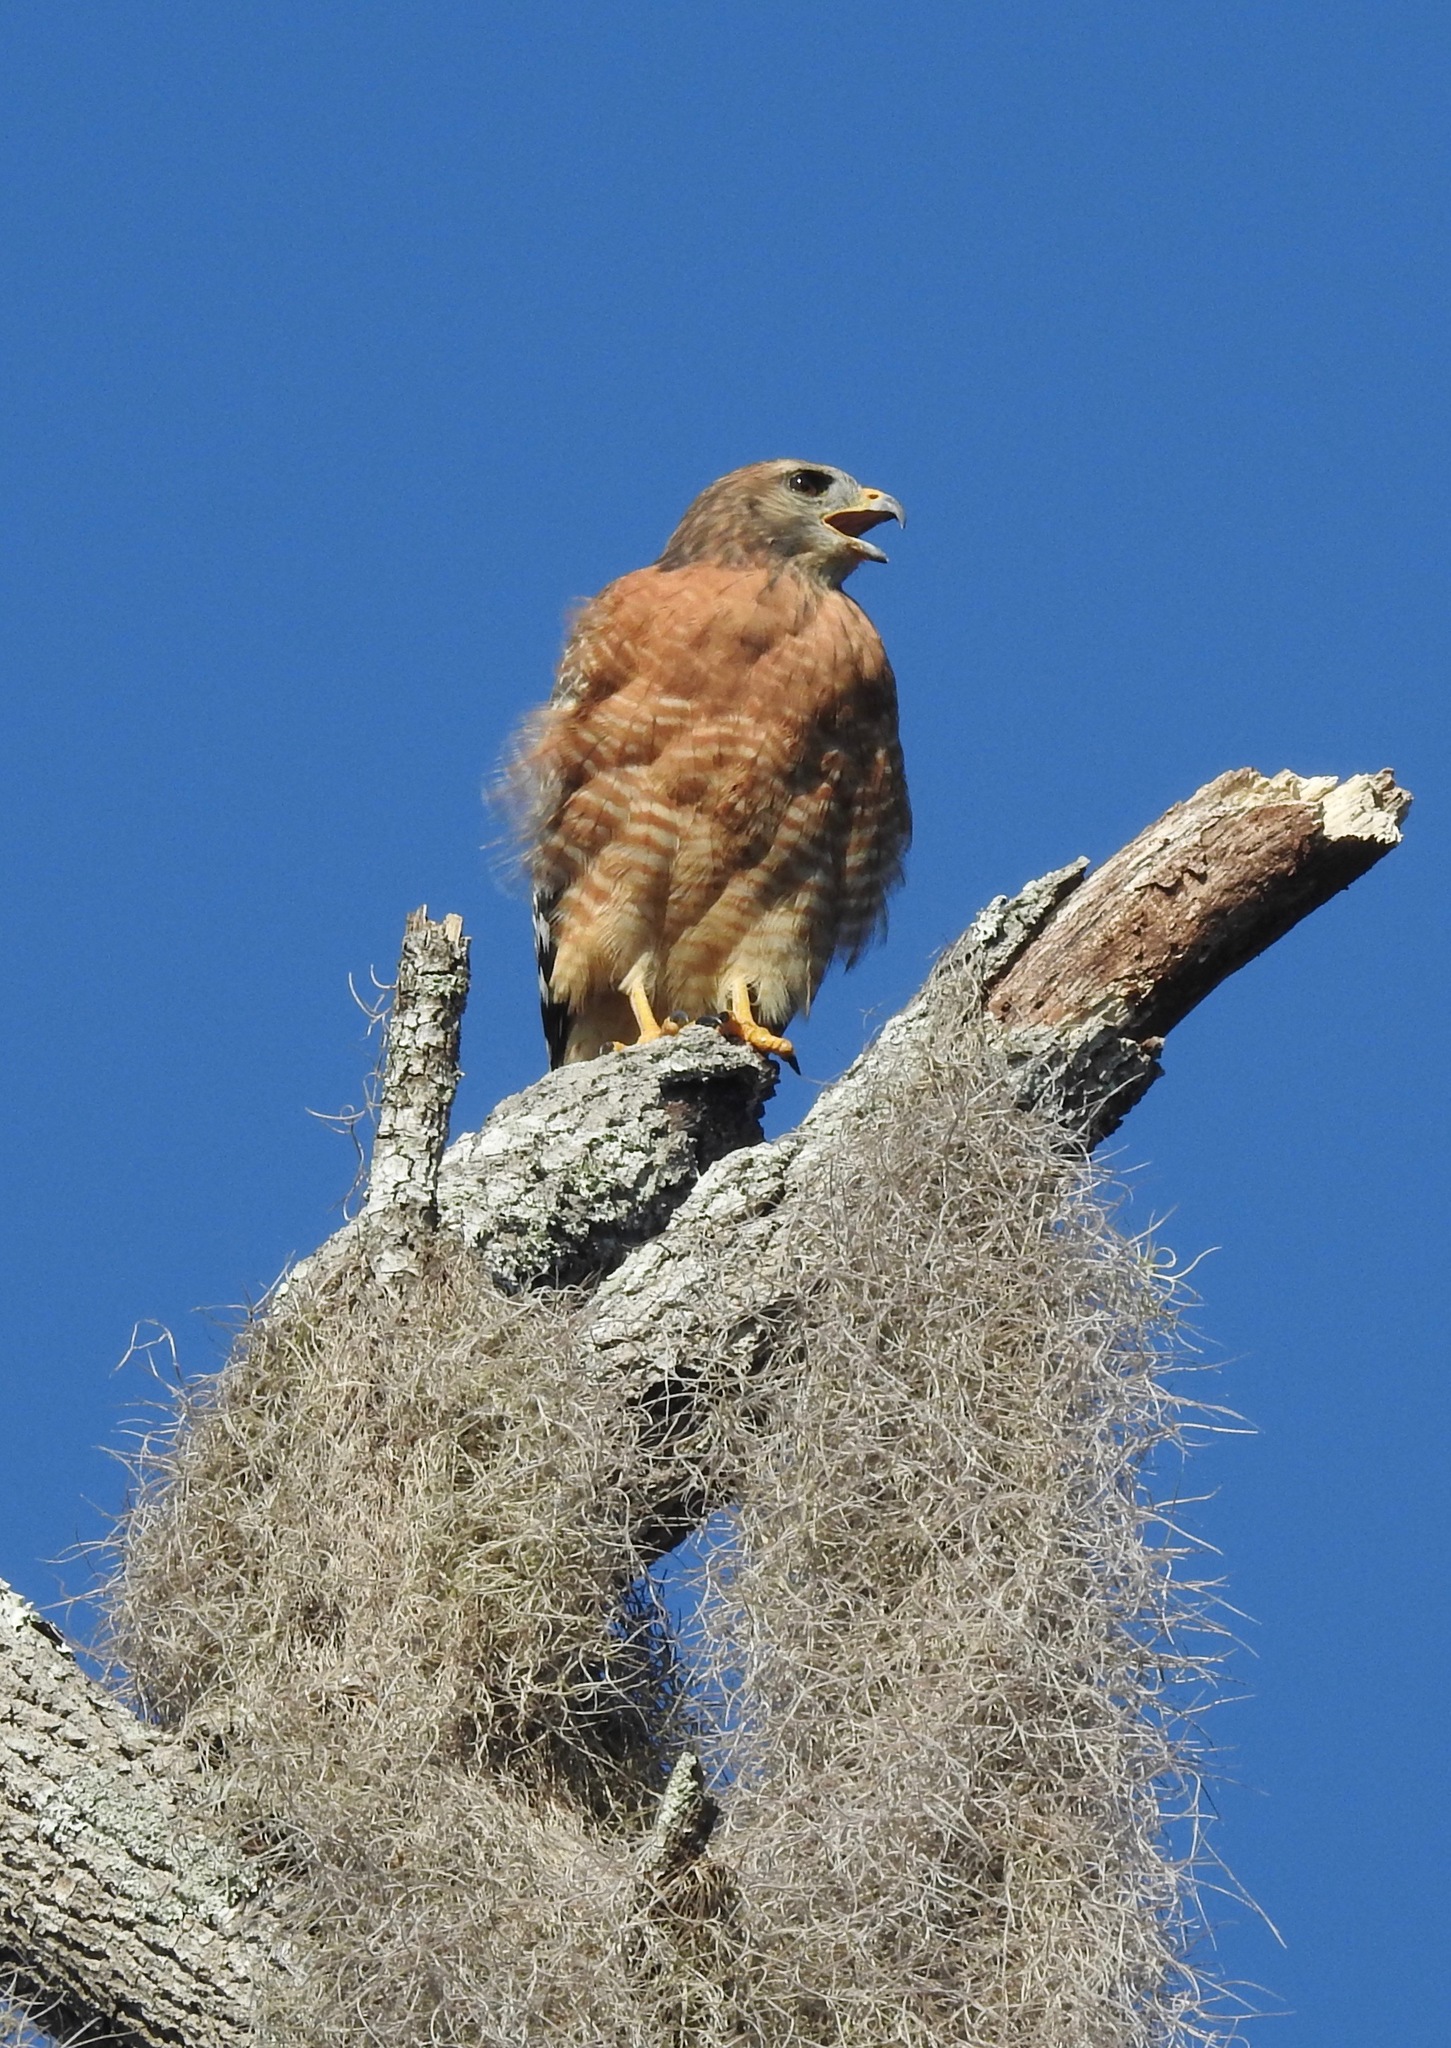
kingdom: Animalia
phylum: Chordata
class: Aves
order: Accipitriformes
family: Accipitridae
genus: Buteo
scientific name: Buteo lineatus
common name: Red-shouldered hawk
